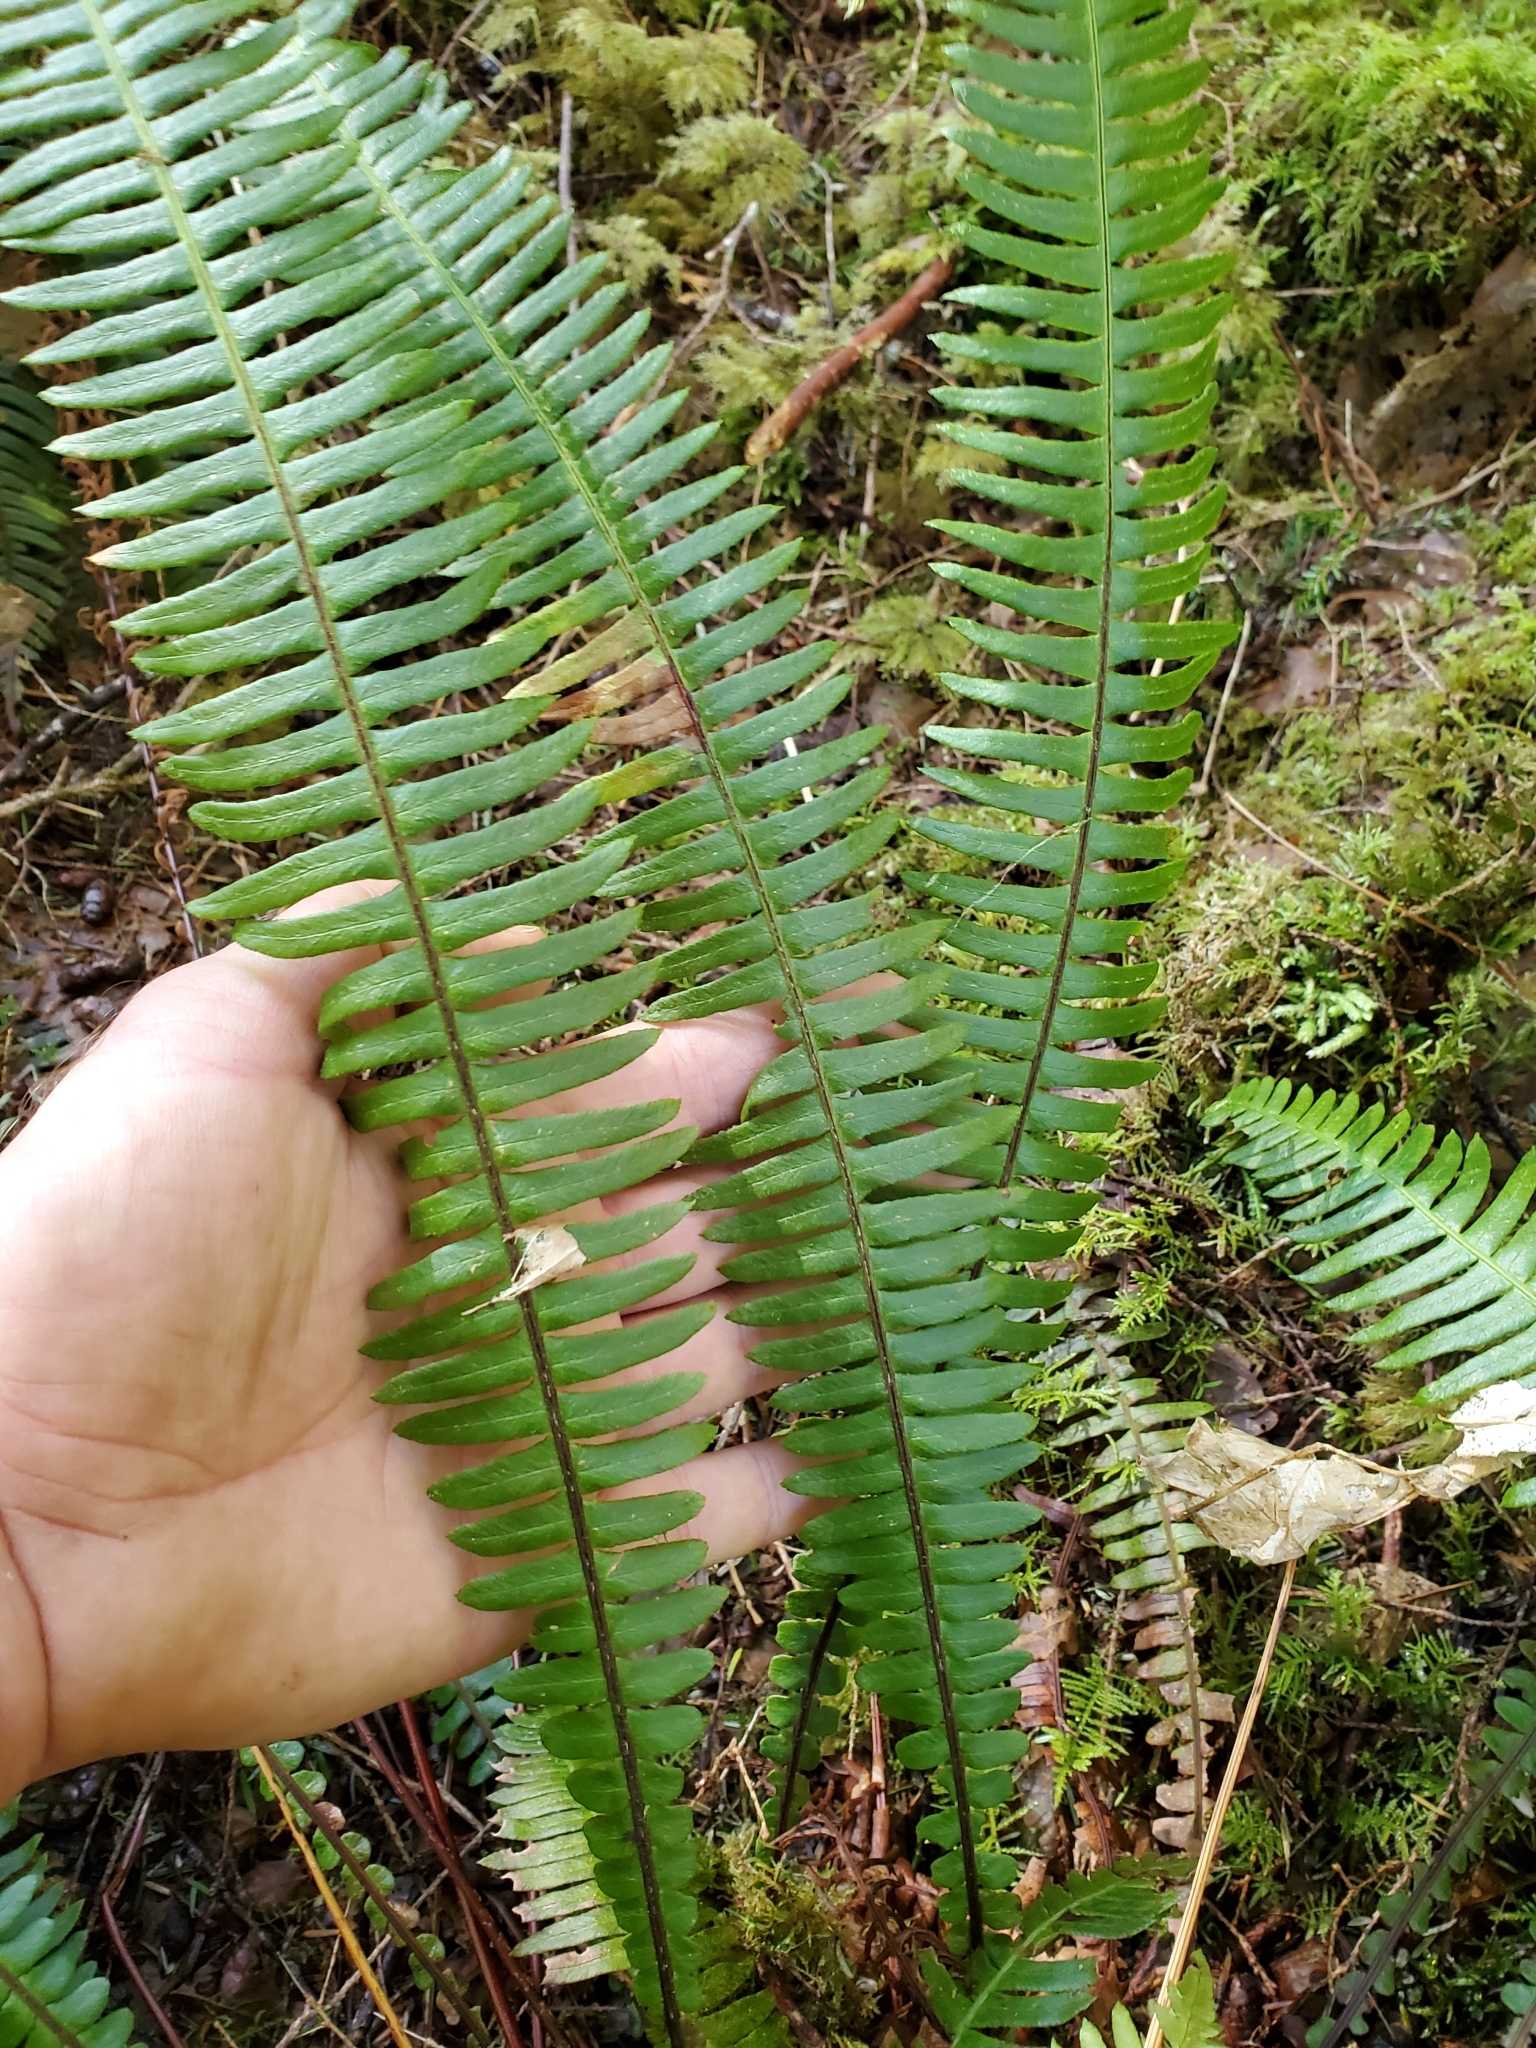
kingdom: Plantae
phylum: Tracheophyta
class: Polypodiopsida
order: Polypodiales
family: Blechnaceae
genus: Struthiopteris
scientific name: Struthiopteris spicant
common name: Deer fern
